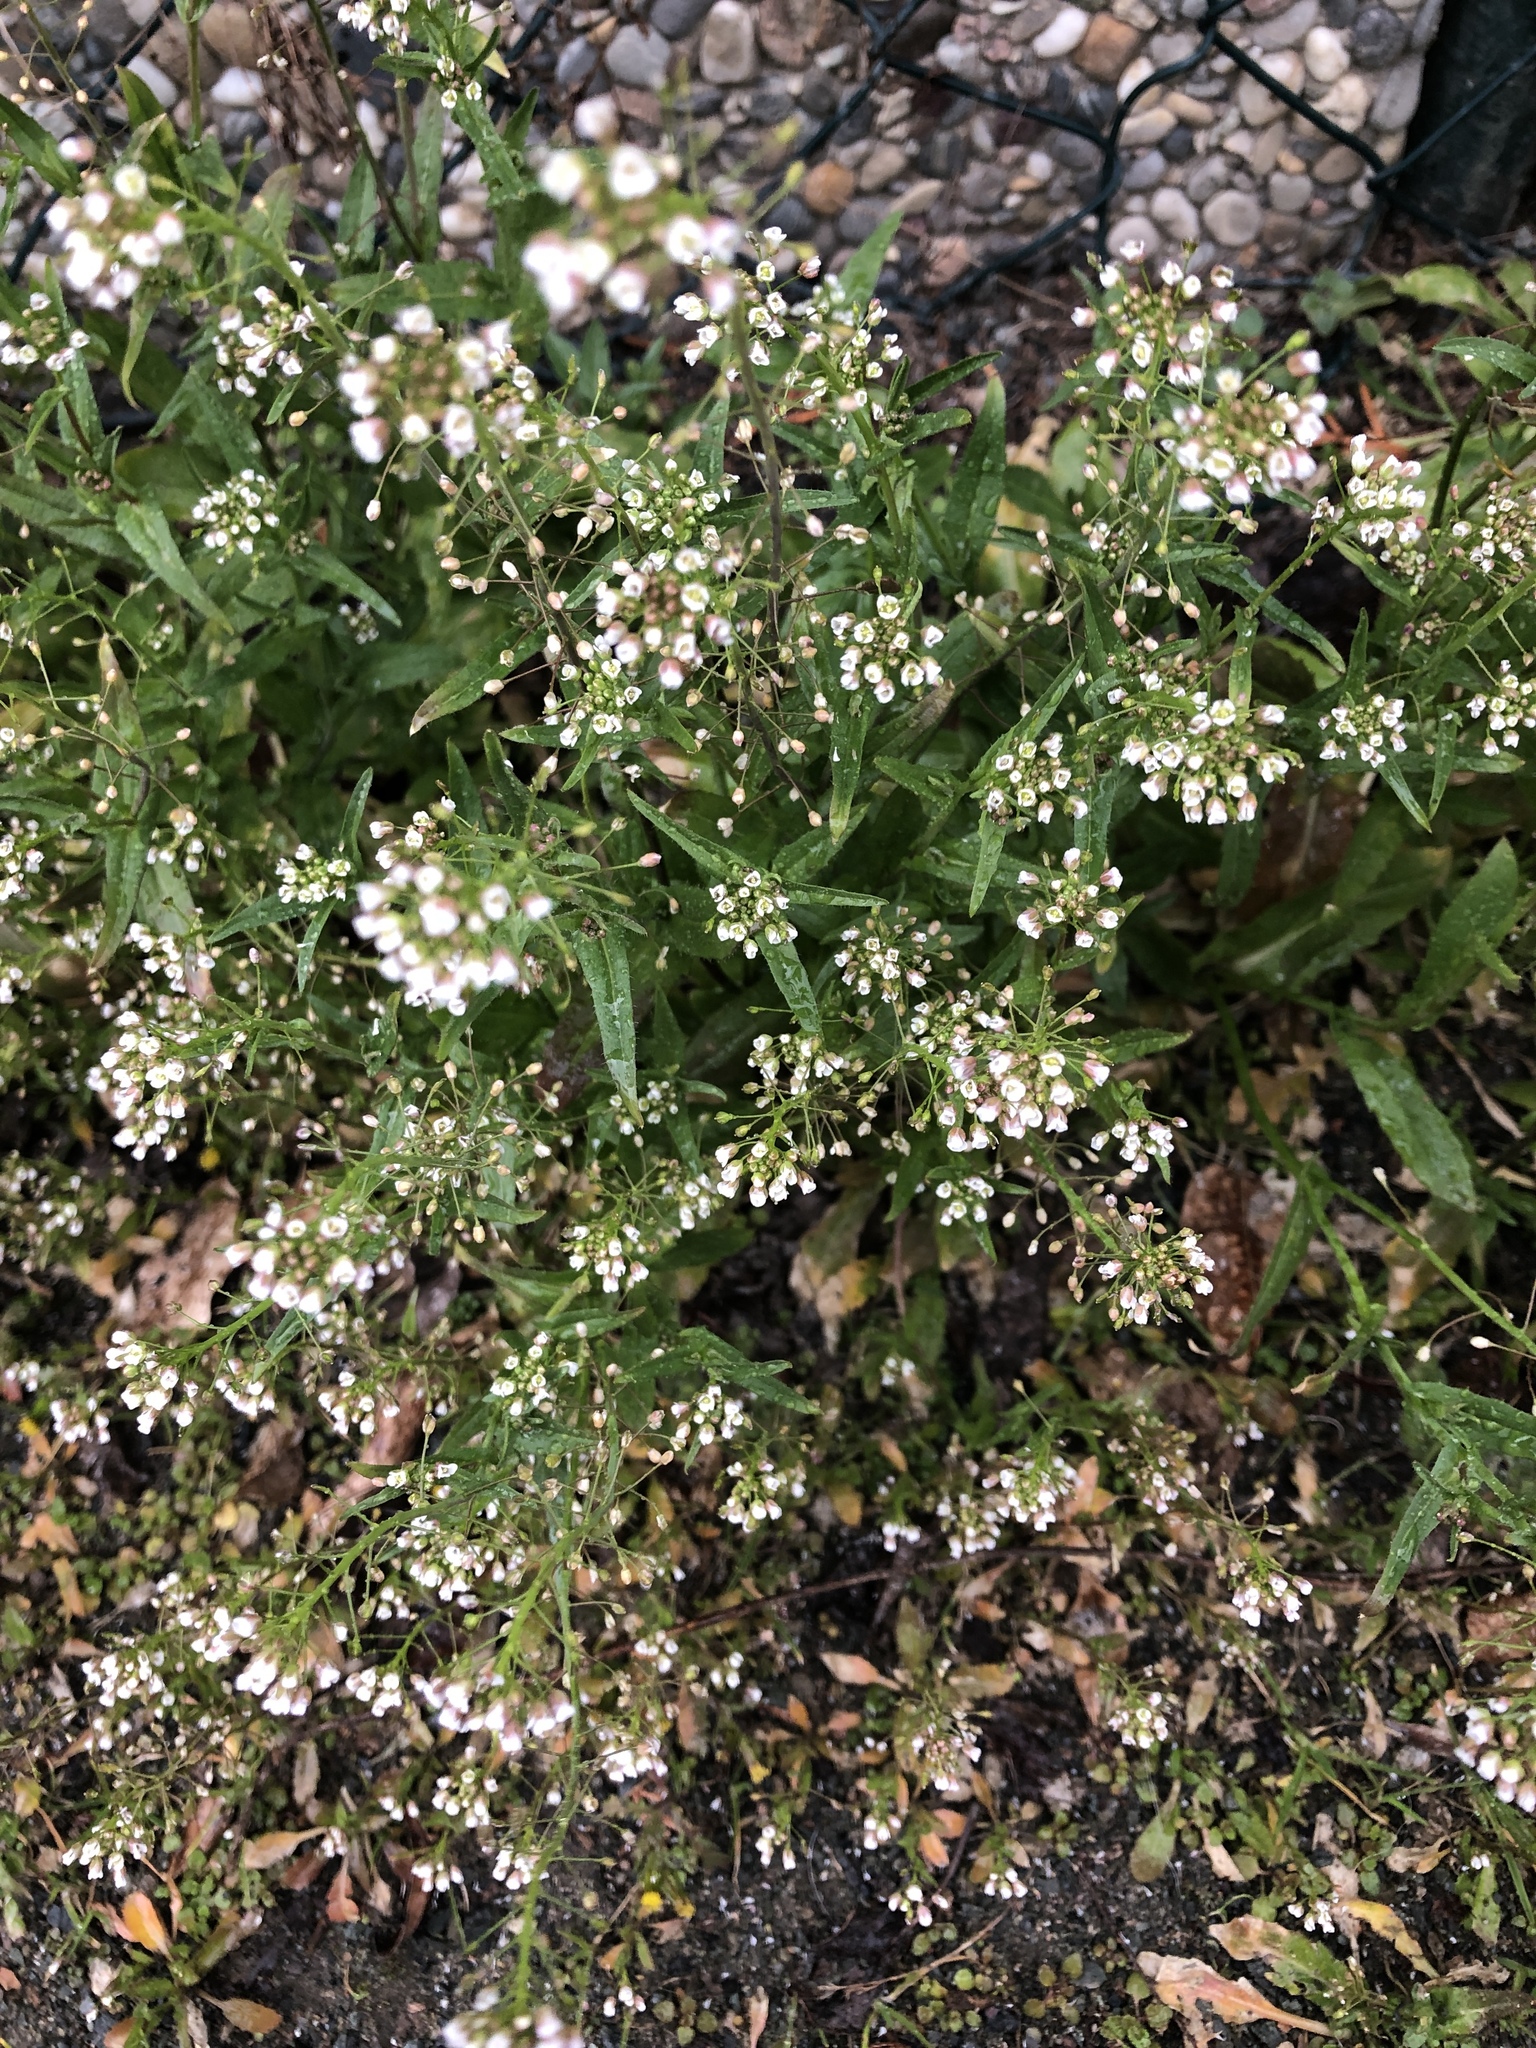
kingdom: Plantae
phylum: Tracheophyta
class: Magnoliopsida
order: Brassicales
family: Brassicaceae
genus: Capsella
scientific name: Capsella bursa-pastoris
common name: Shepherd's purse
